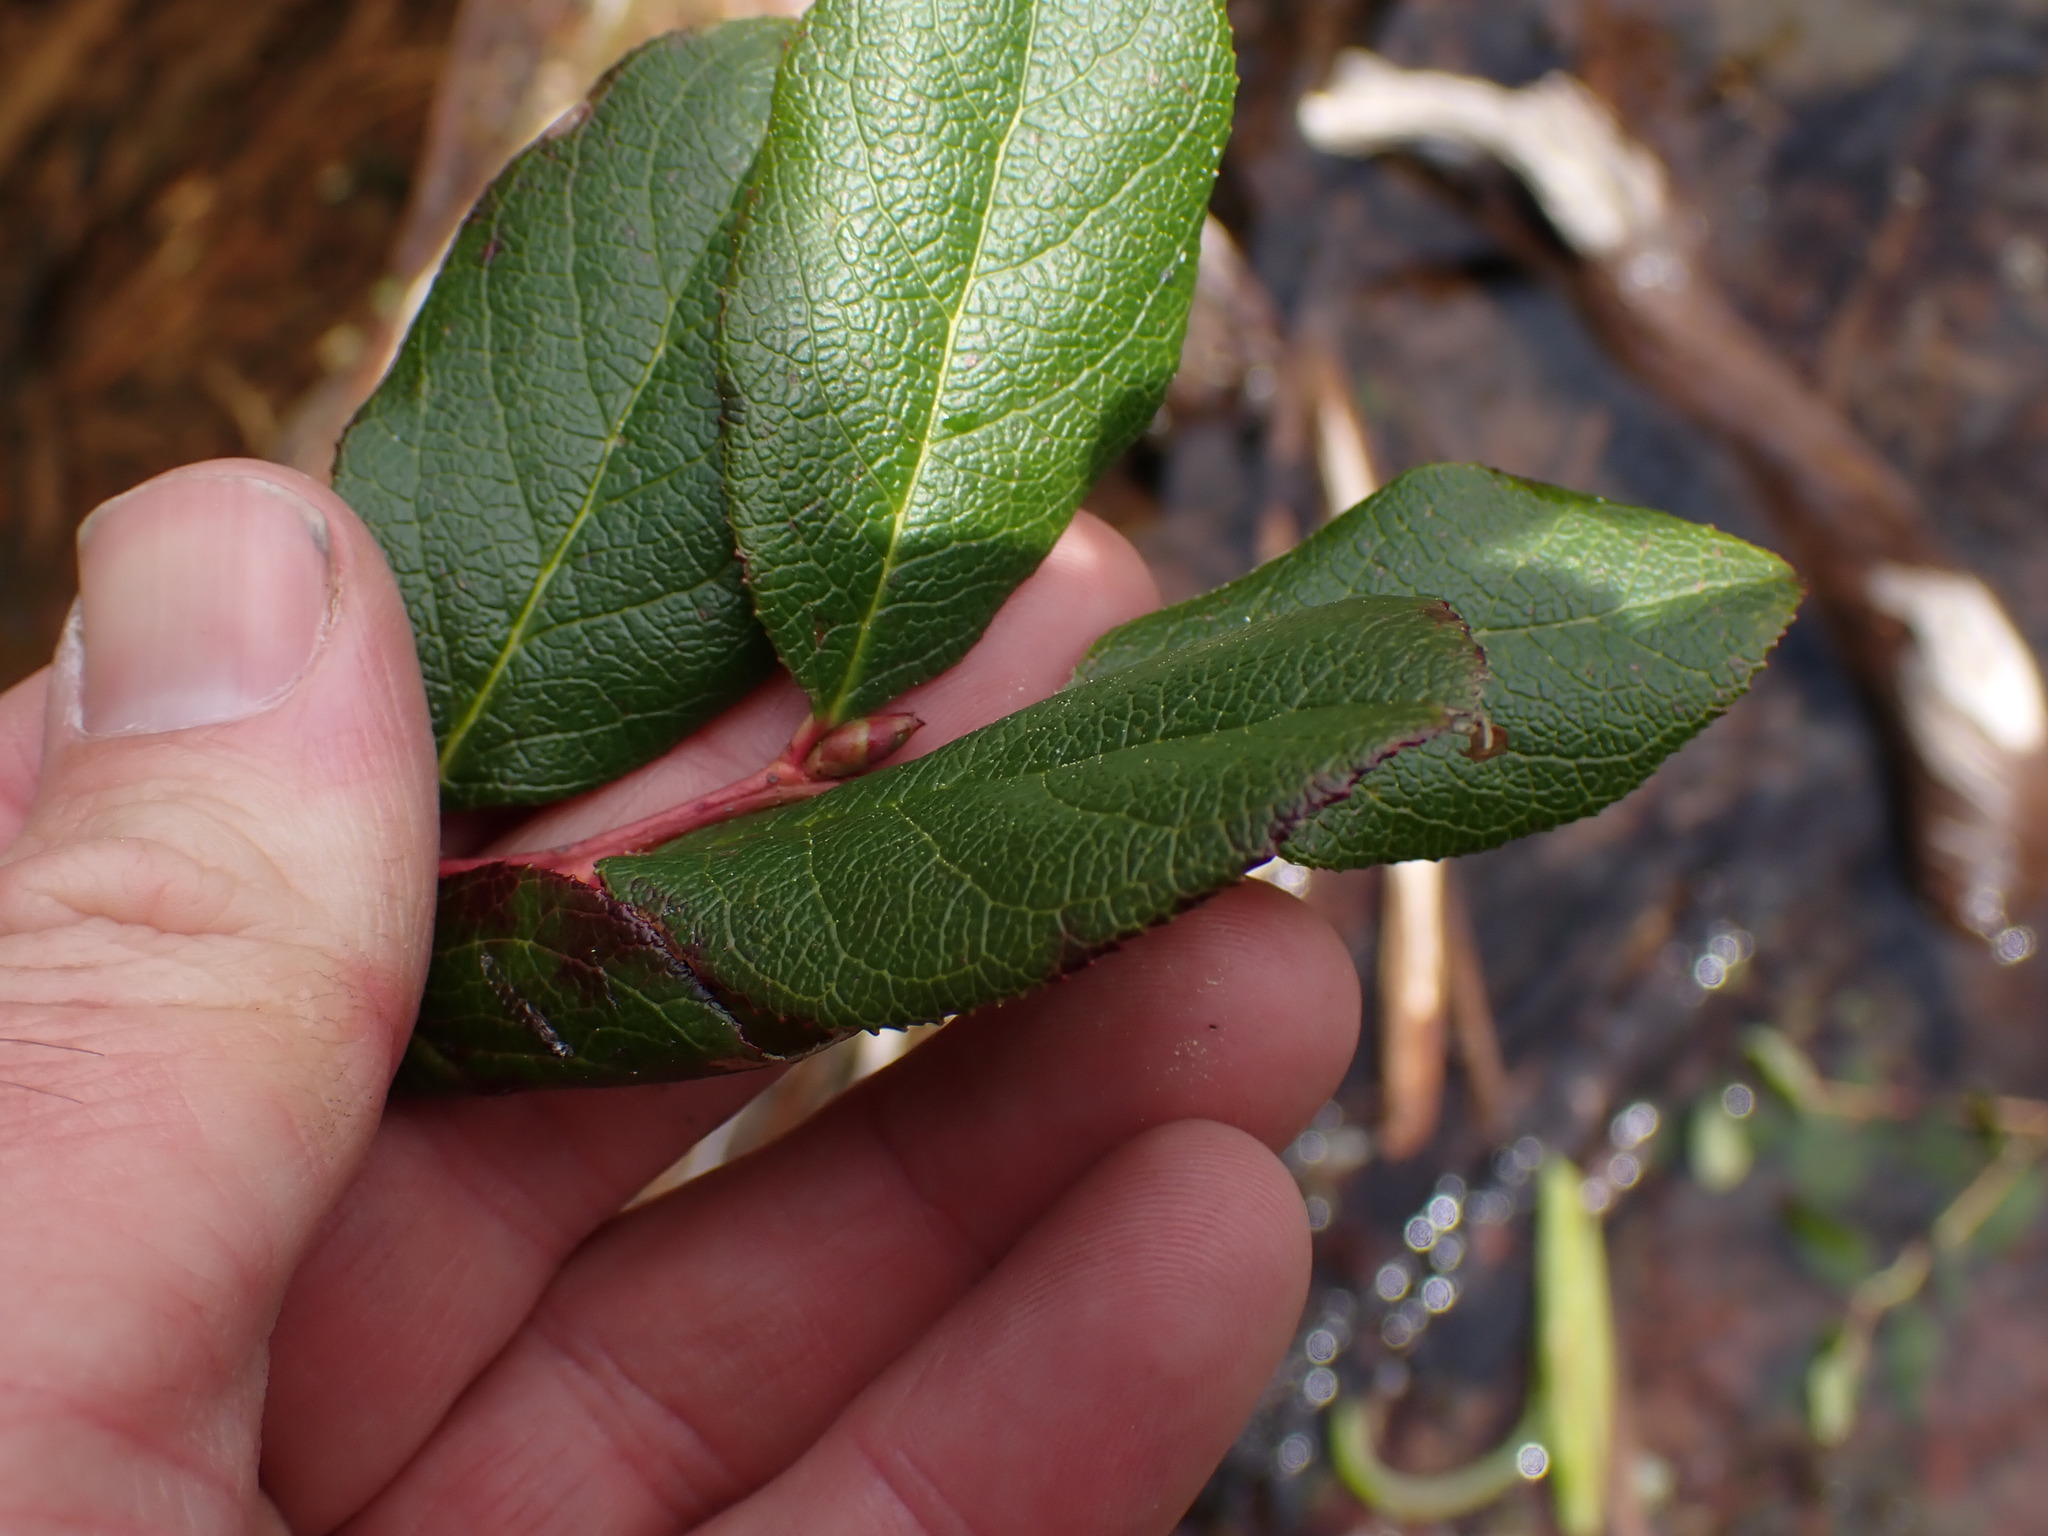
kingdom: Plantae
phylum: Tracheophyta
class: Magnoliopsida
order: Ericales
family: Ericaceae
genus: Gaultheria
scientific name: Gaultheria shallon
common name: Shallon
